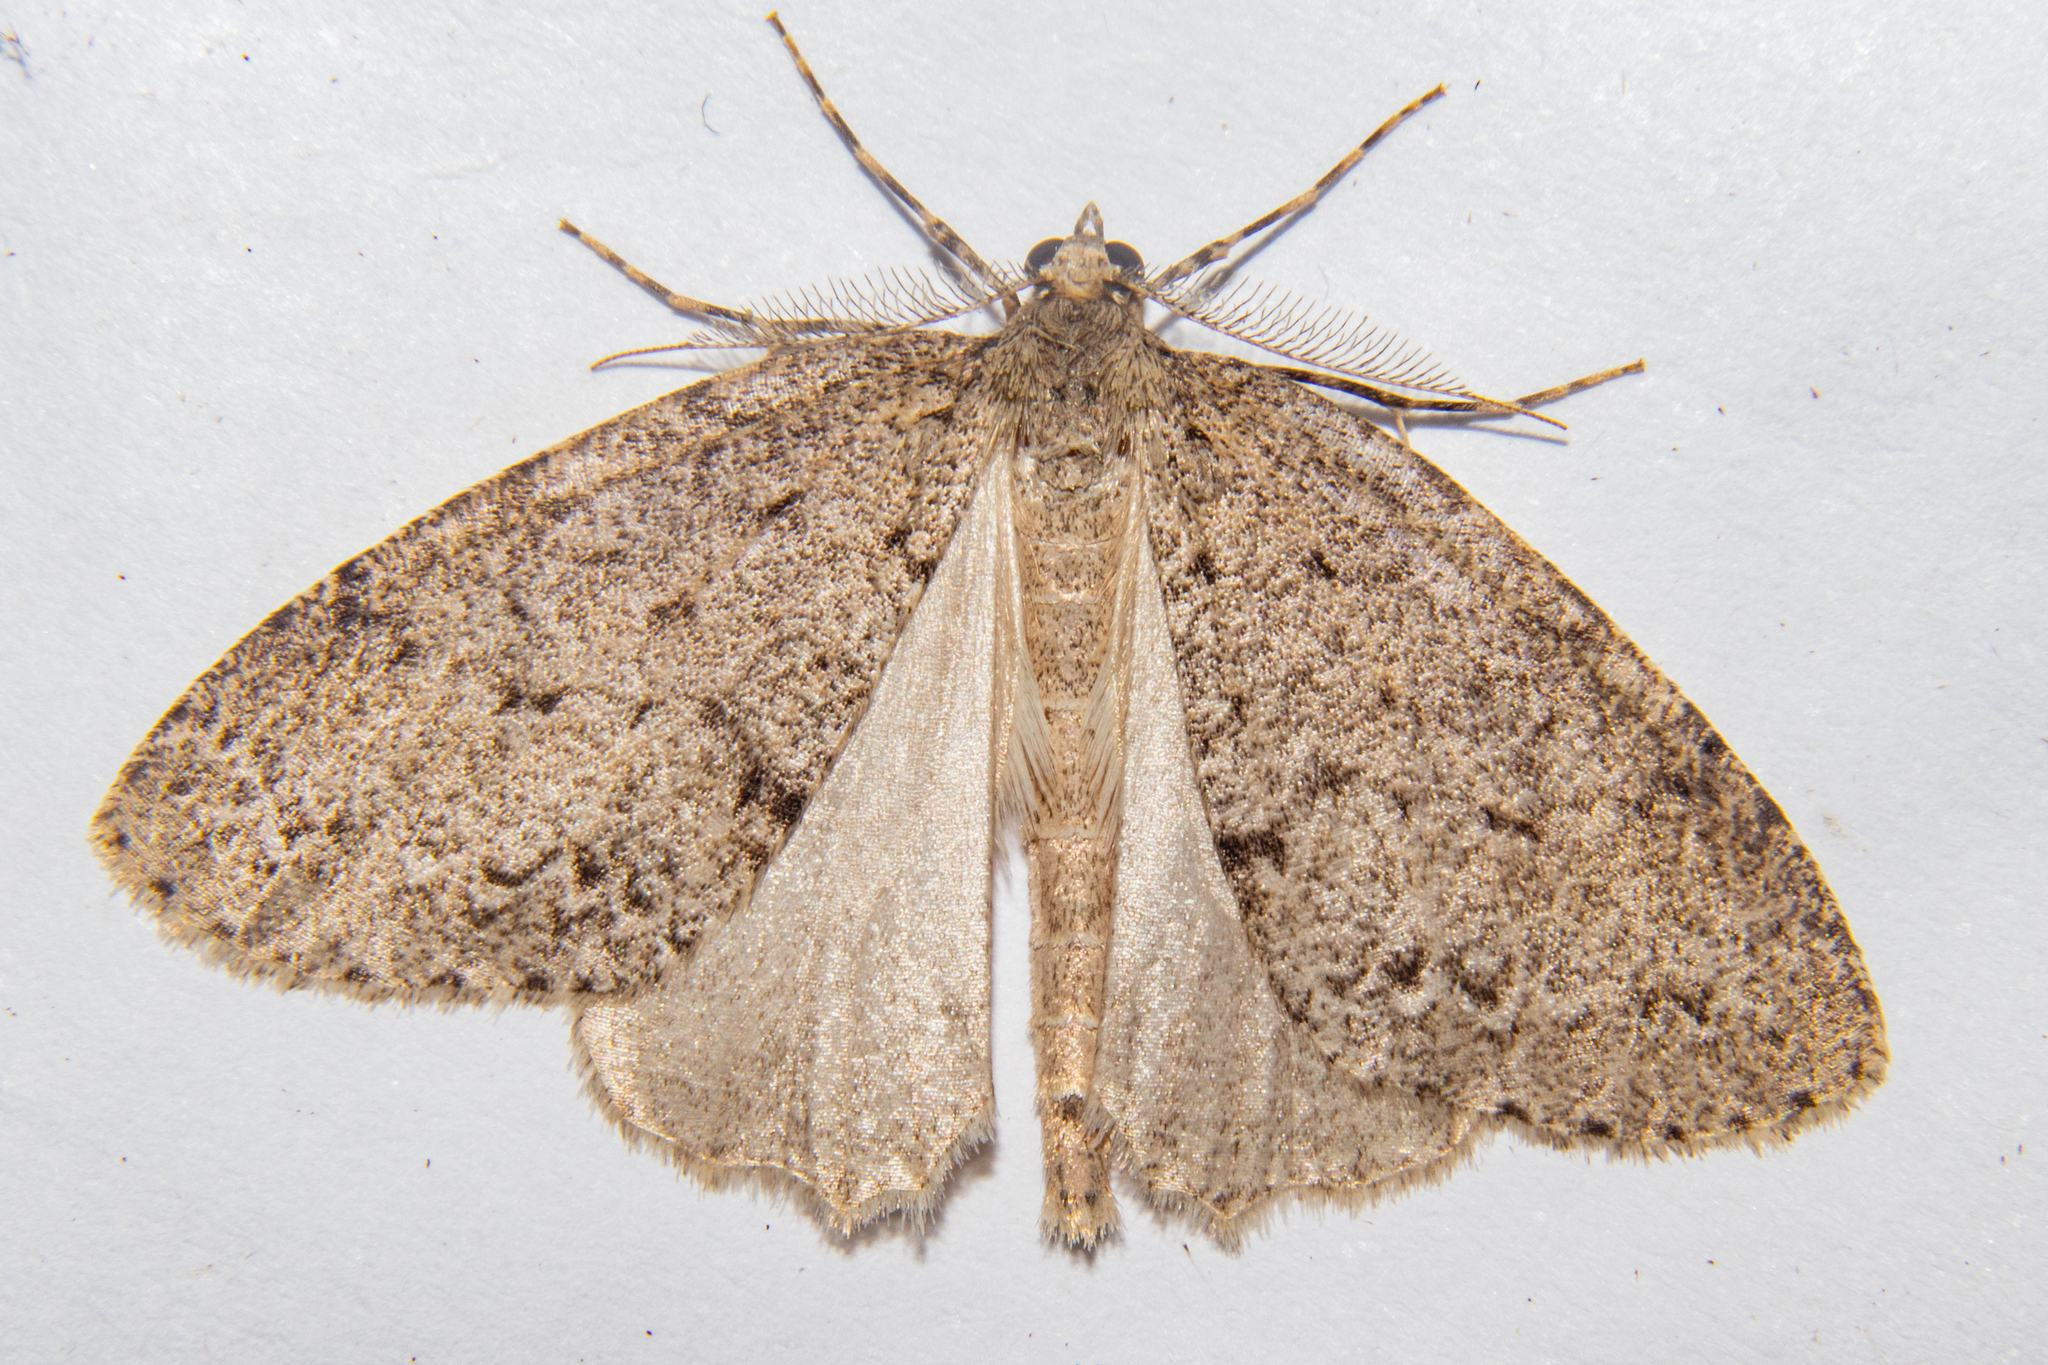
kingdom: Animalia
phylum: Arthropoda
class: Insecta
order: Lepidoptera
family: Geometridae
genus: Pseudocoremia
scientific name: Pseudocoremia fenerata
